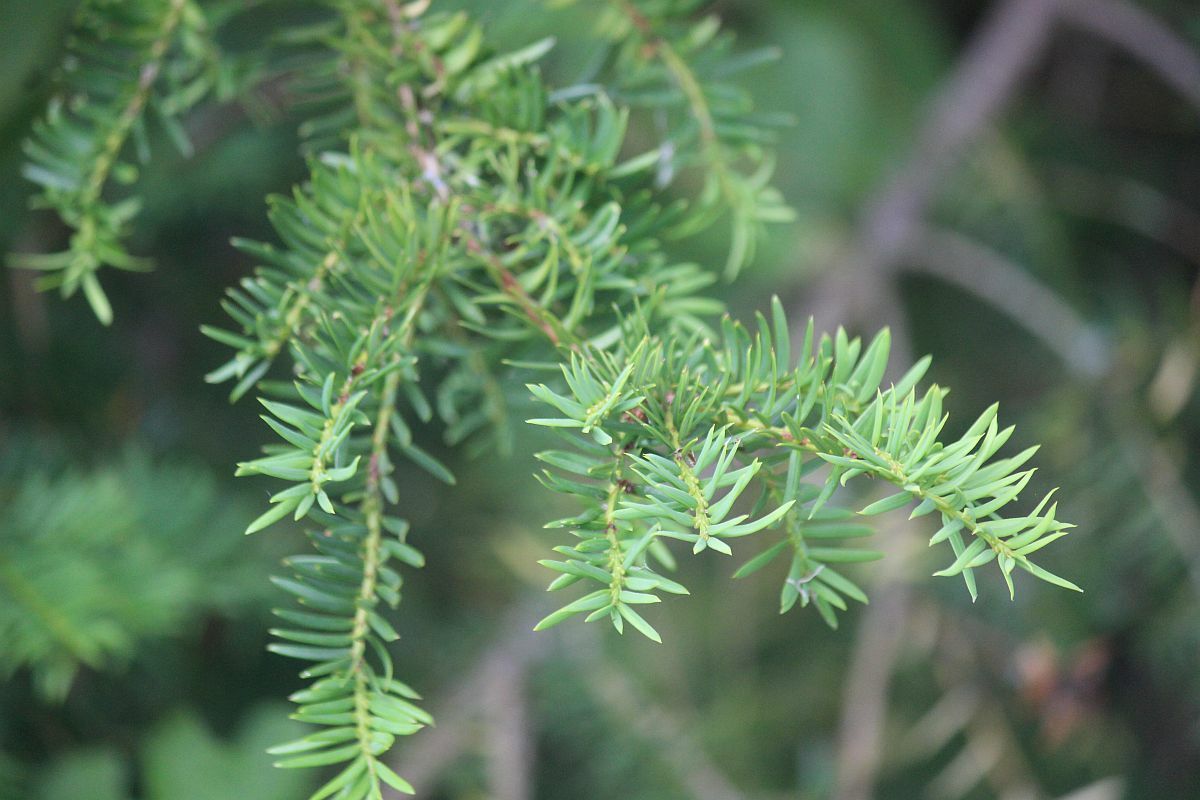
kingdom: Plantae
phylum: Tracheophyta
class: Pinopsida
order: Pinales
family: Taxaceae
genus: Taxus
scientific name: Taxus baccata
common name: Yew
